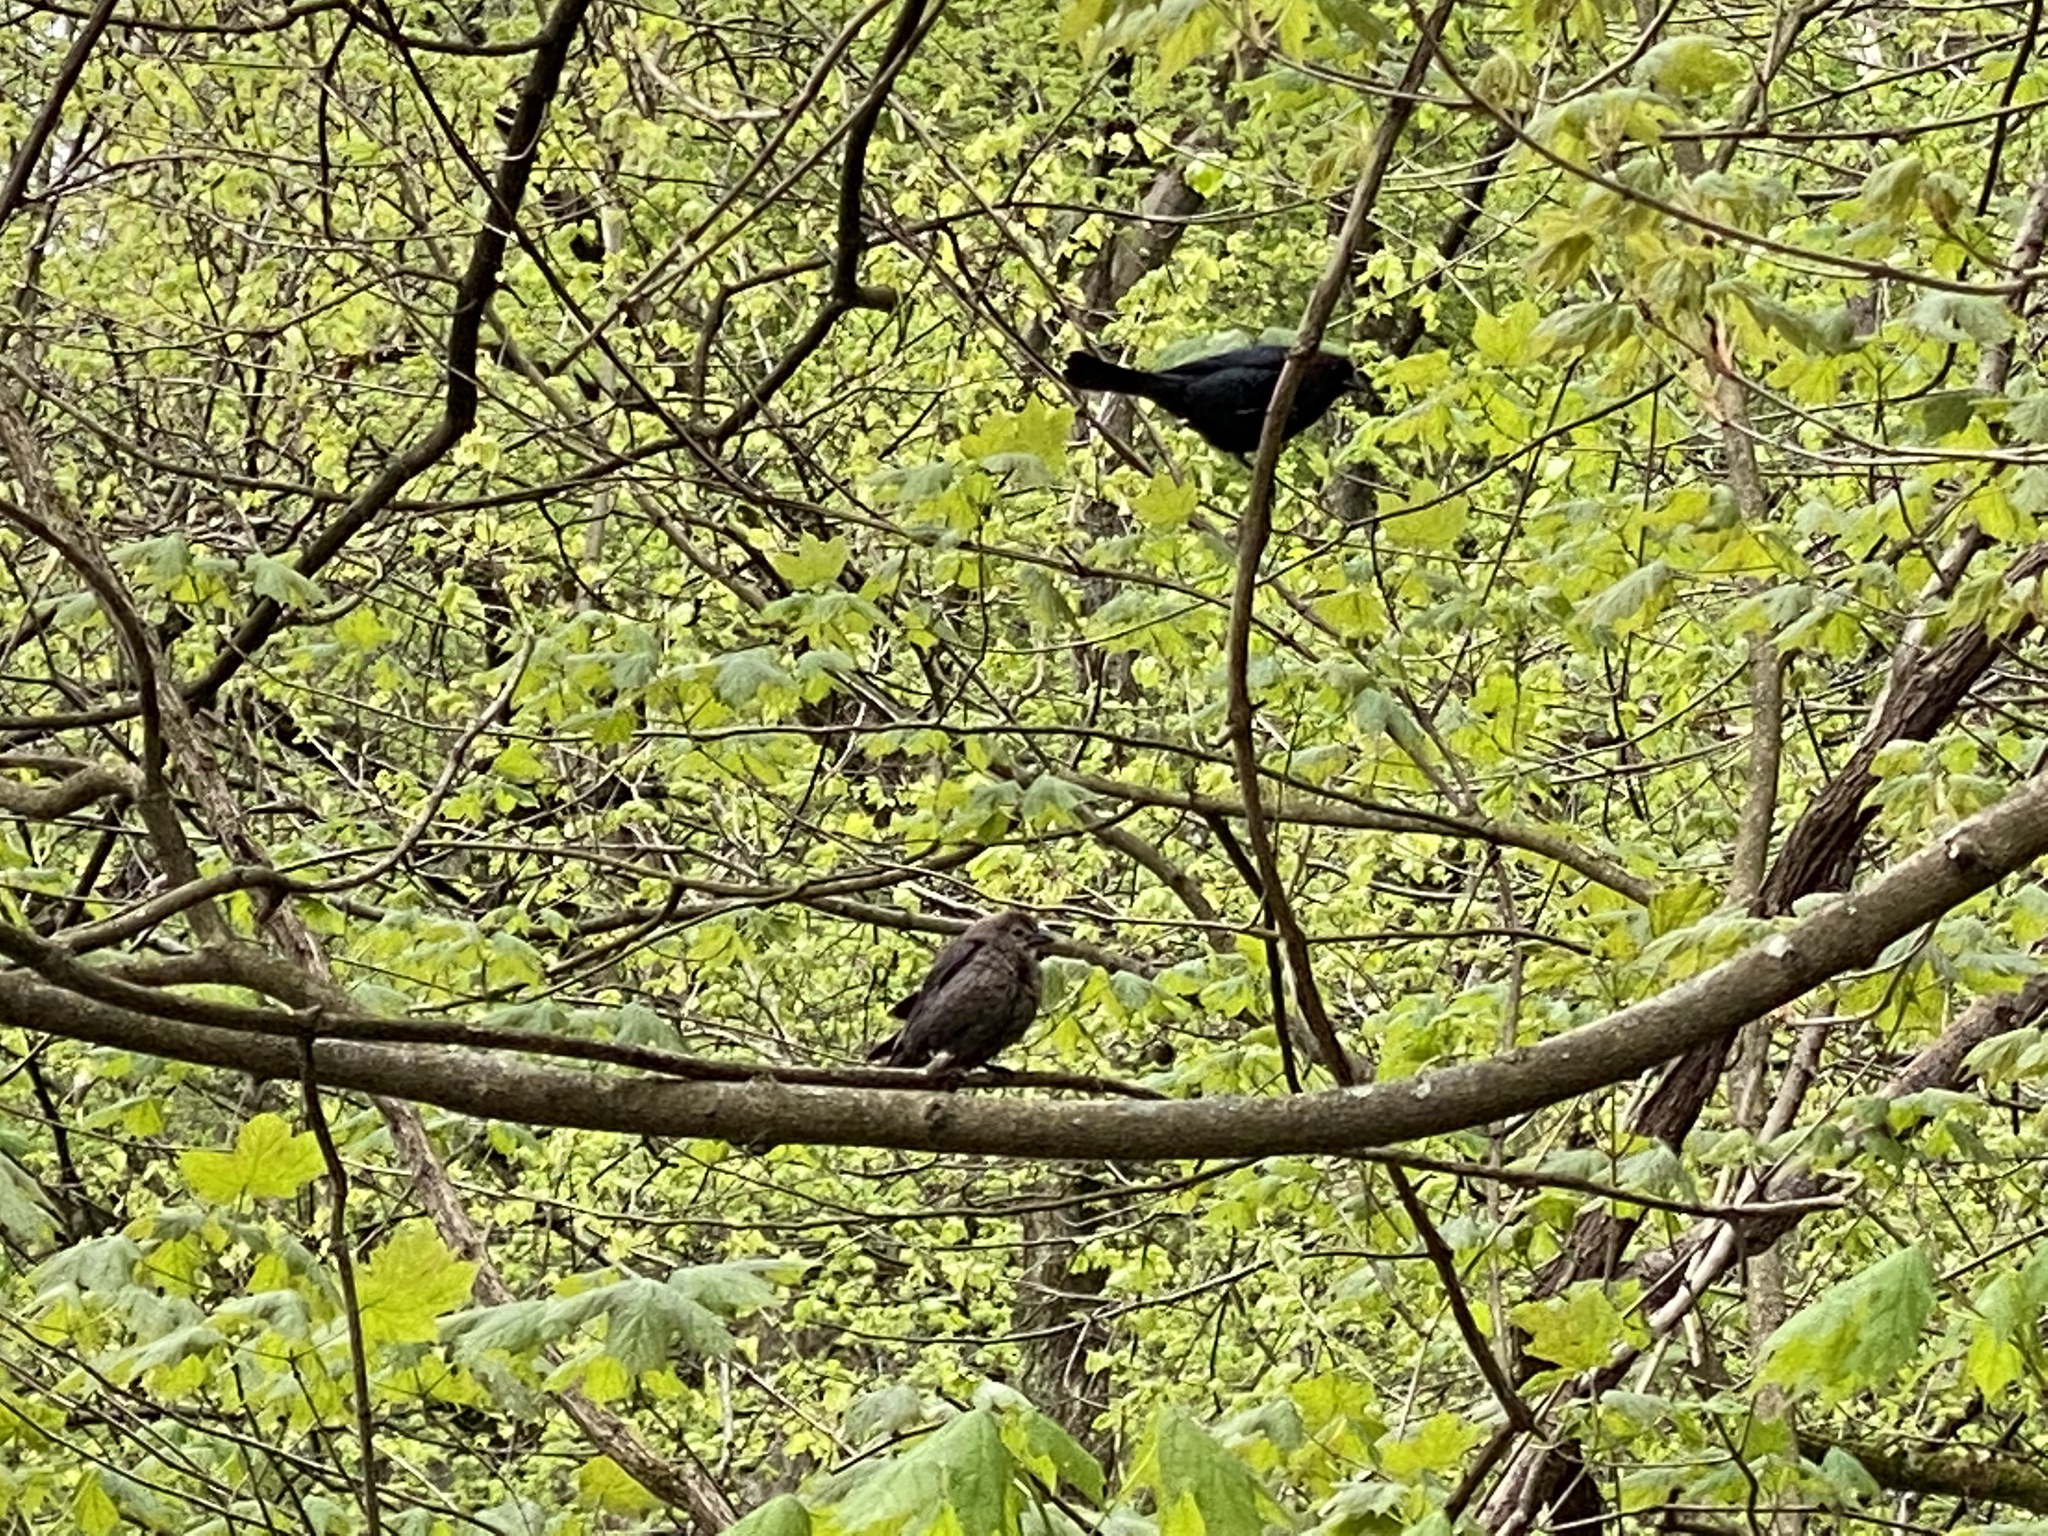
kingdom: Animalia
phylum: Chordata
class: Aves
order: Passeriformes
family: Icteridae
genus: Molothrus
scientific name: Molothrus ater
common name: Brown-headed cowbird
